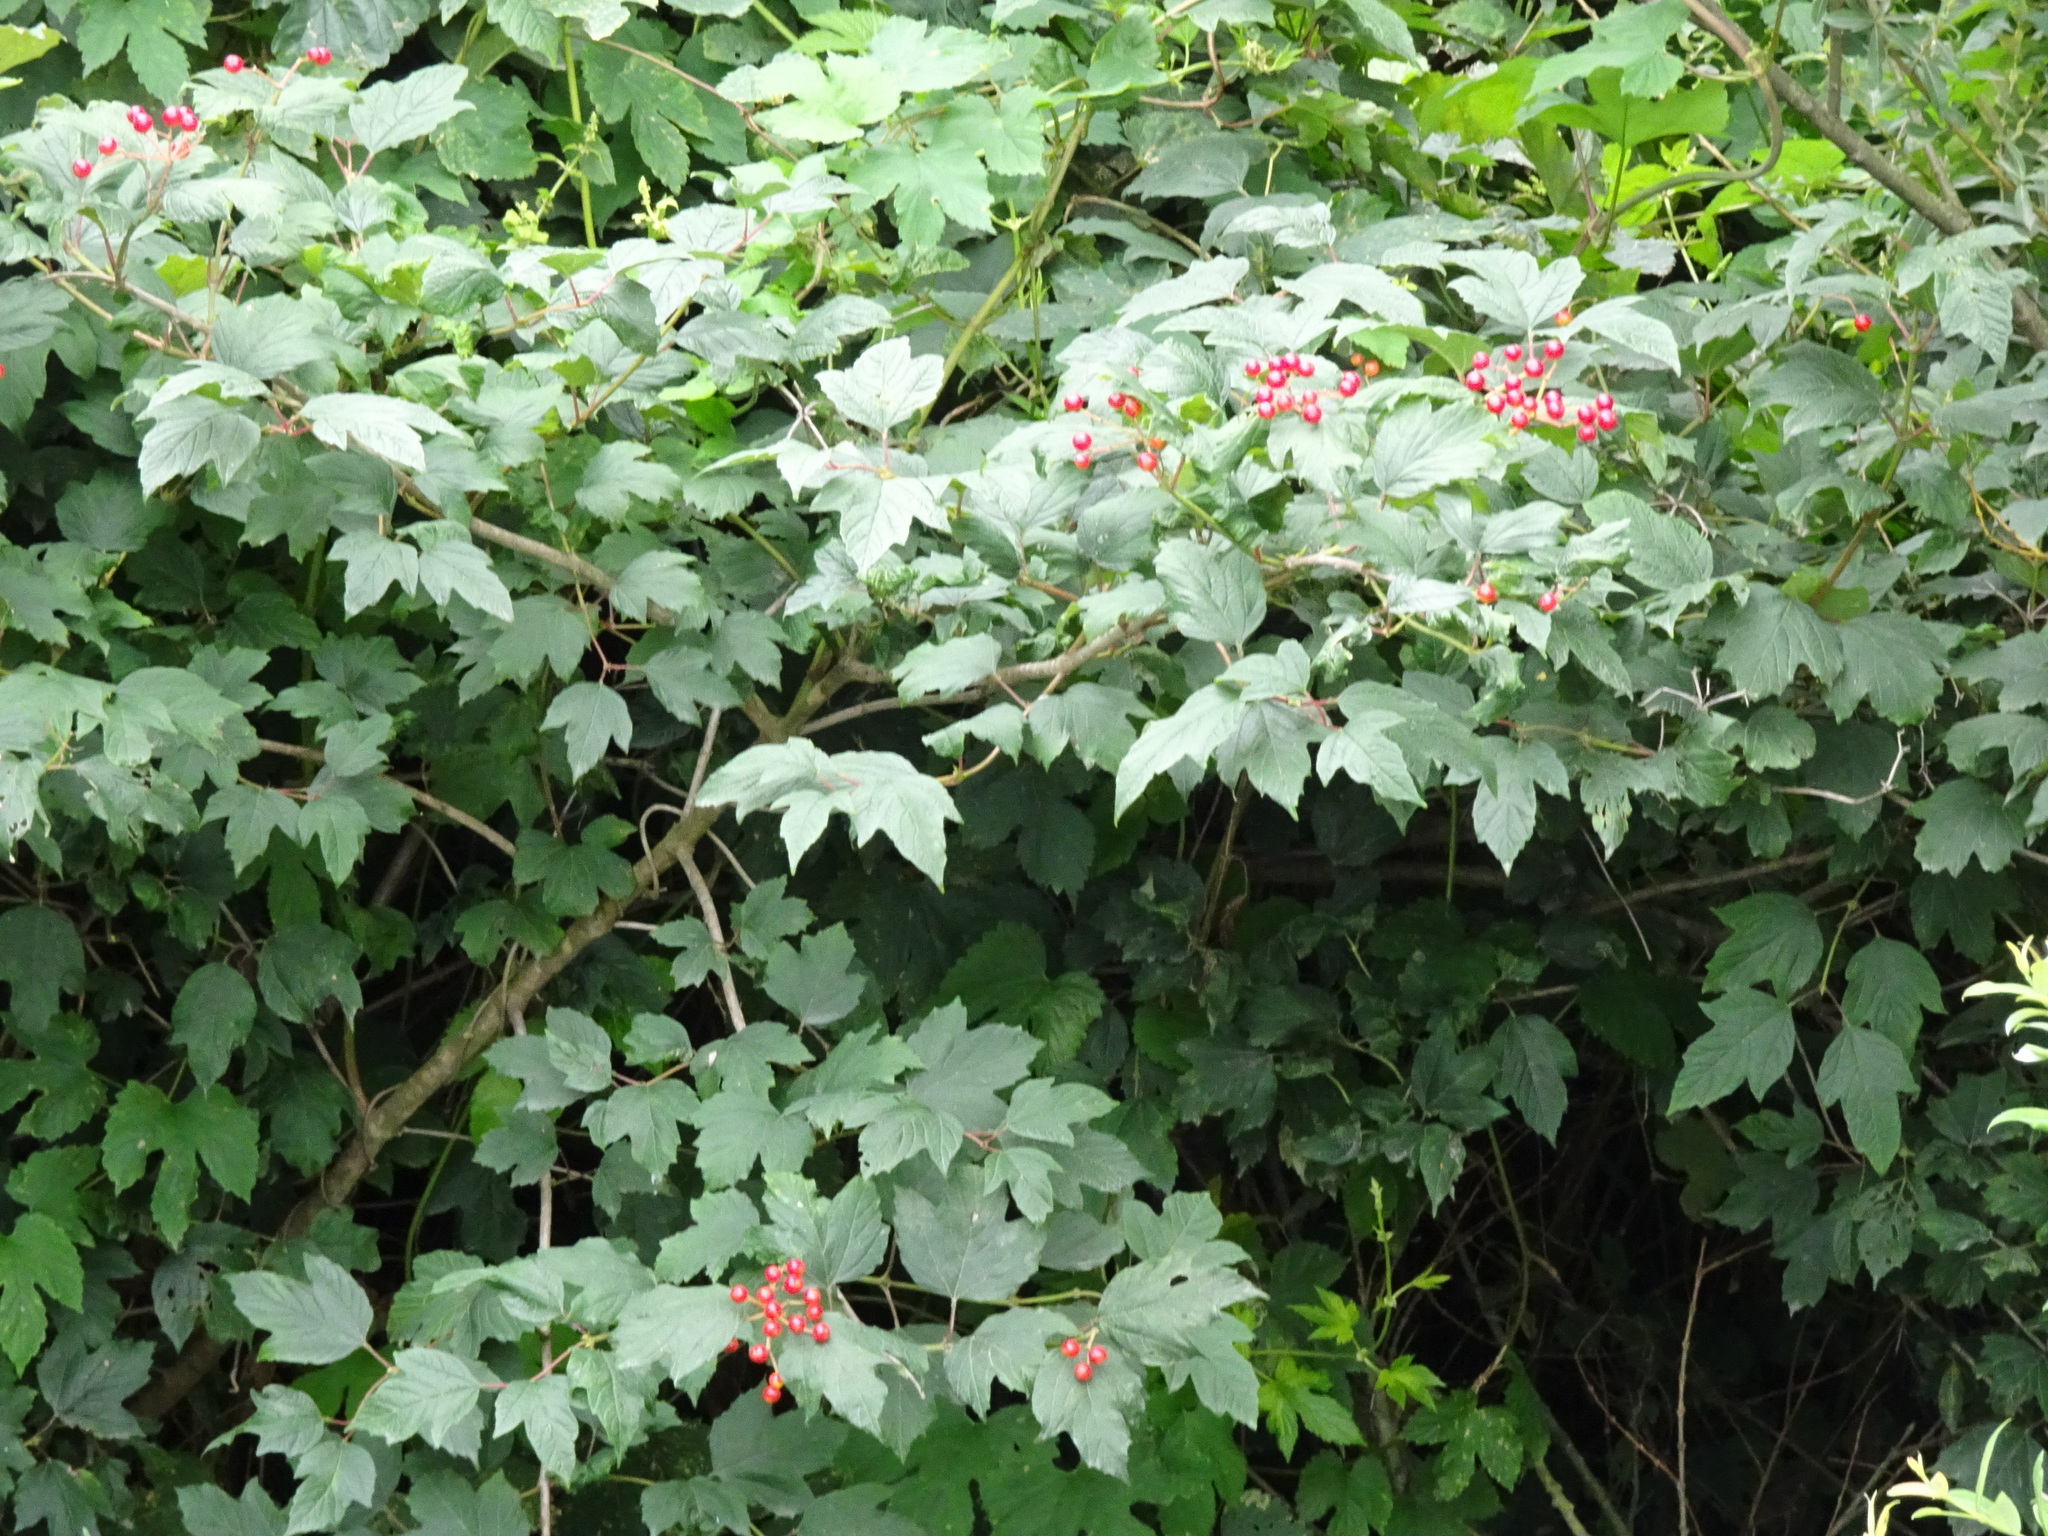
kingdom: Plantae
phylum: Tracheophyta
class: Magnoliopsida
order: Dipsacales
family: Viburnaceae
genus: Viburnum
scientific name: Viburnum opulus
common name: Guelder-rose
